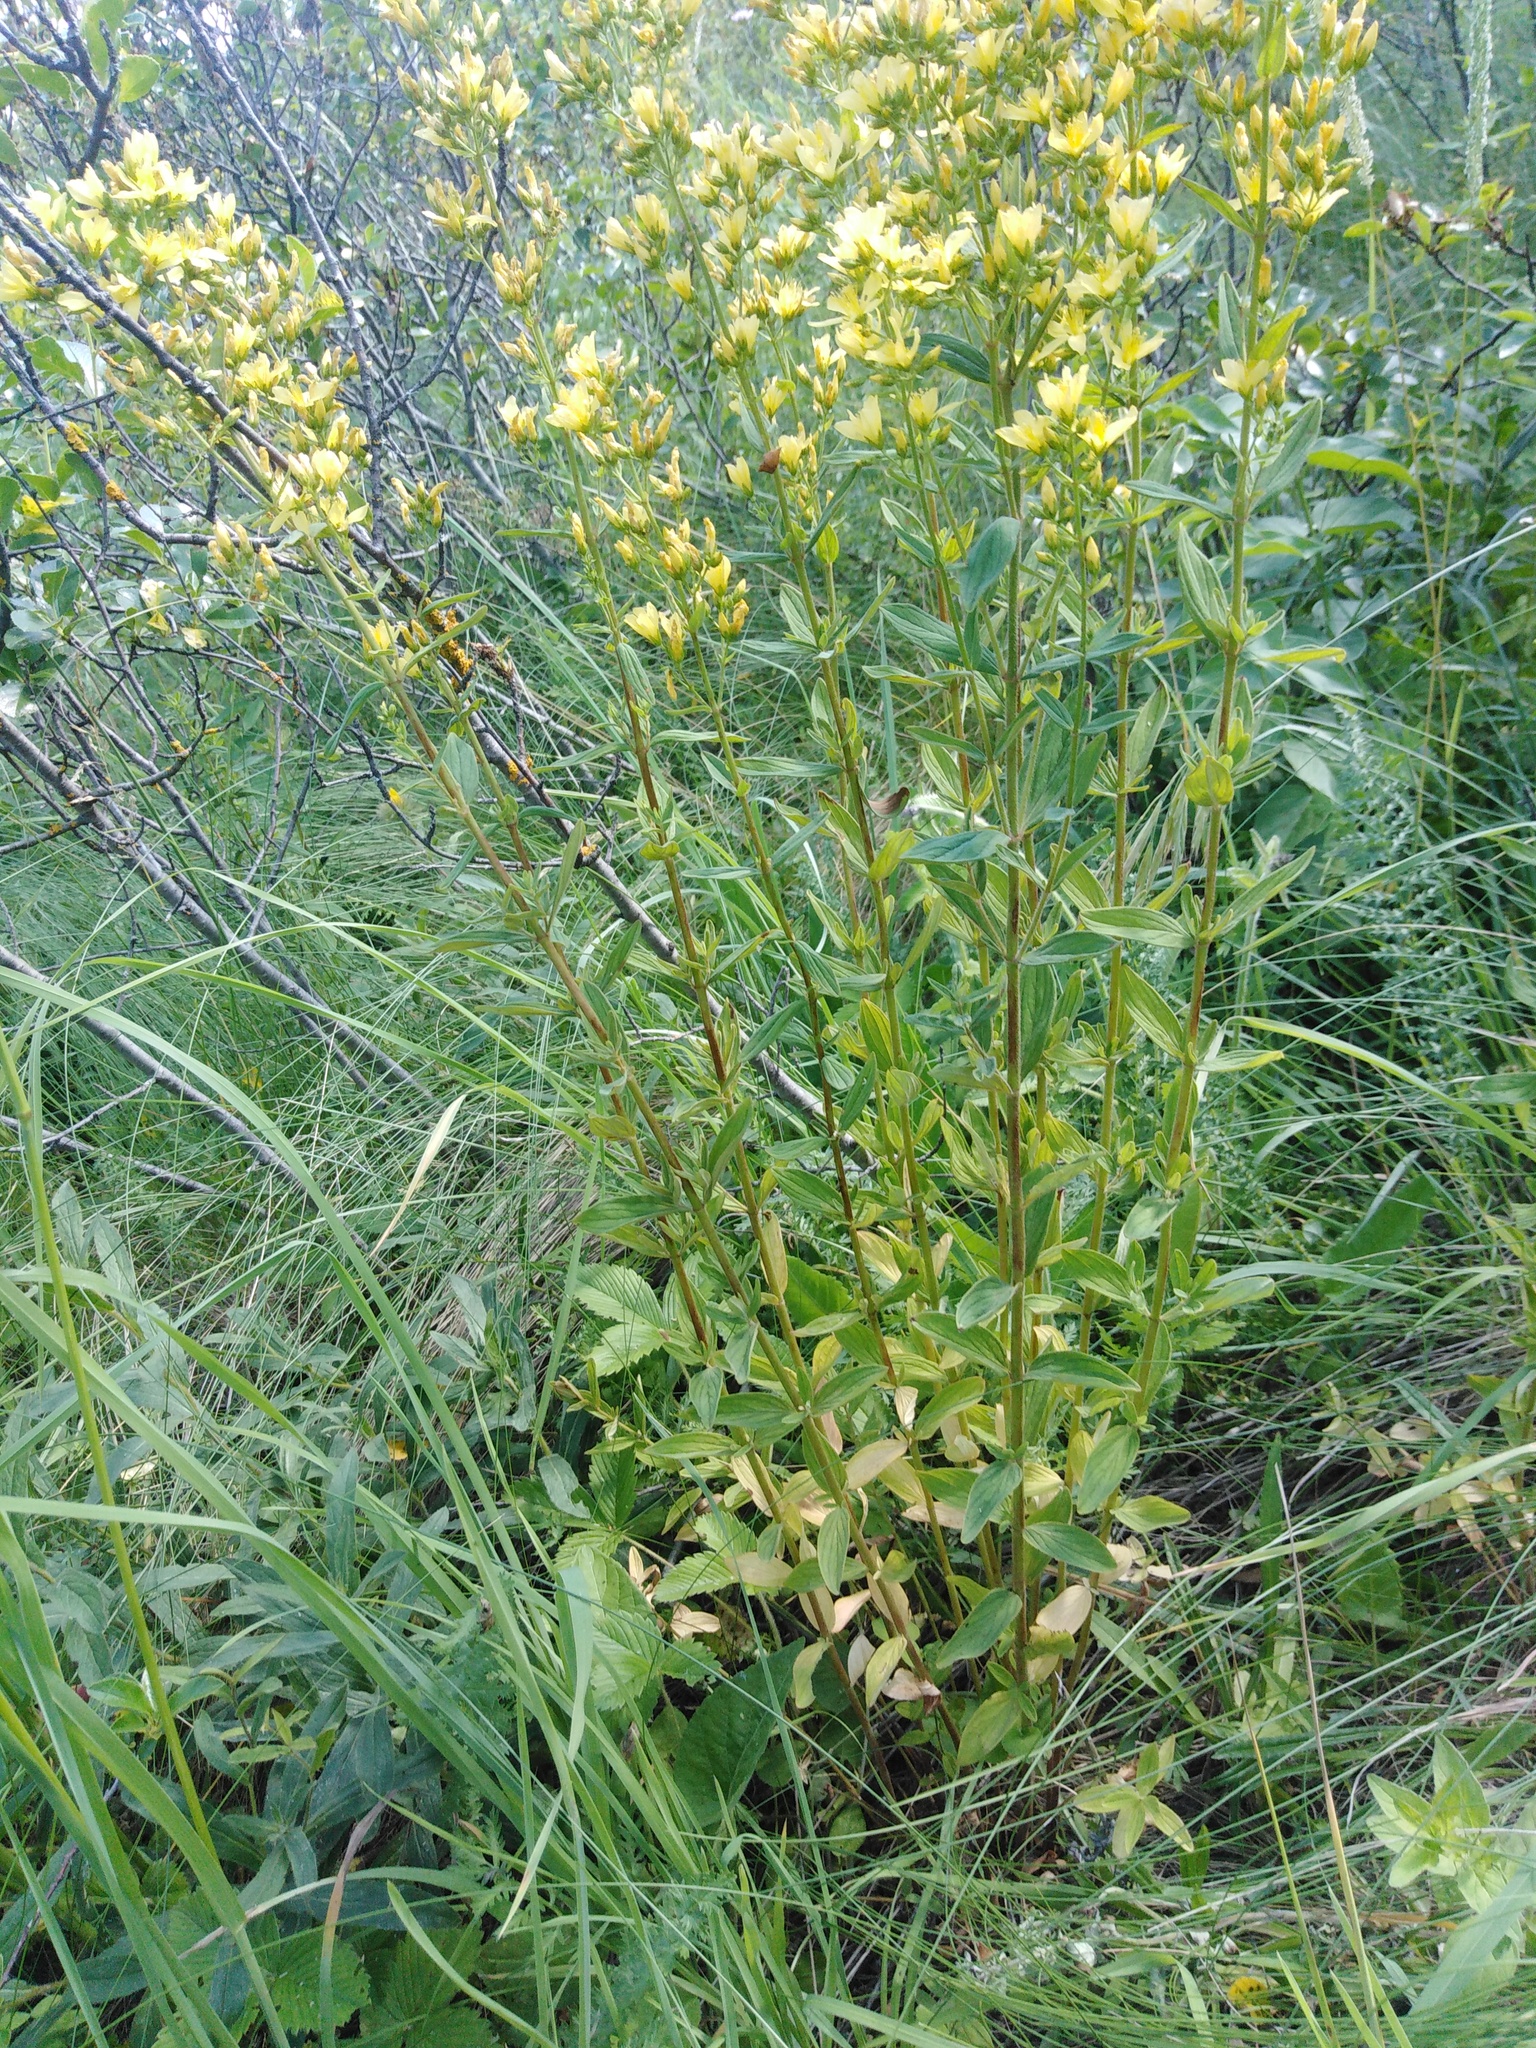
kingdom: Plantae
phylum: Tracheophyta
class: Magnoliopsida
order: Malpighiales
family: Hypericaceae
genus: Hypericum
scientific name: Hypericum hirsutum
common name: Hairy st. john's-wort
